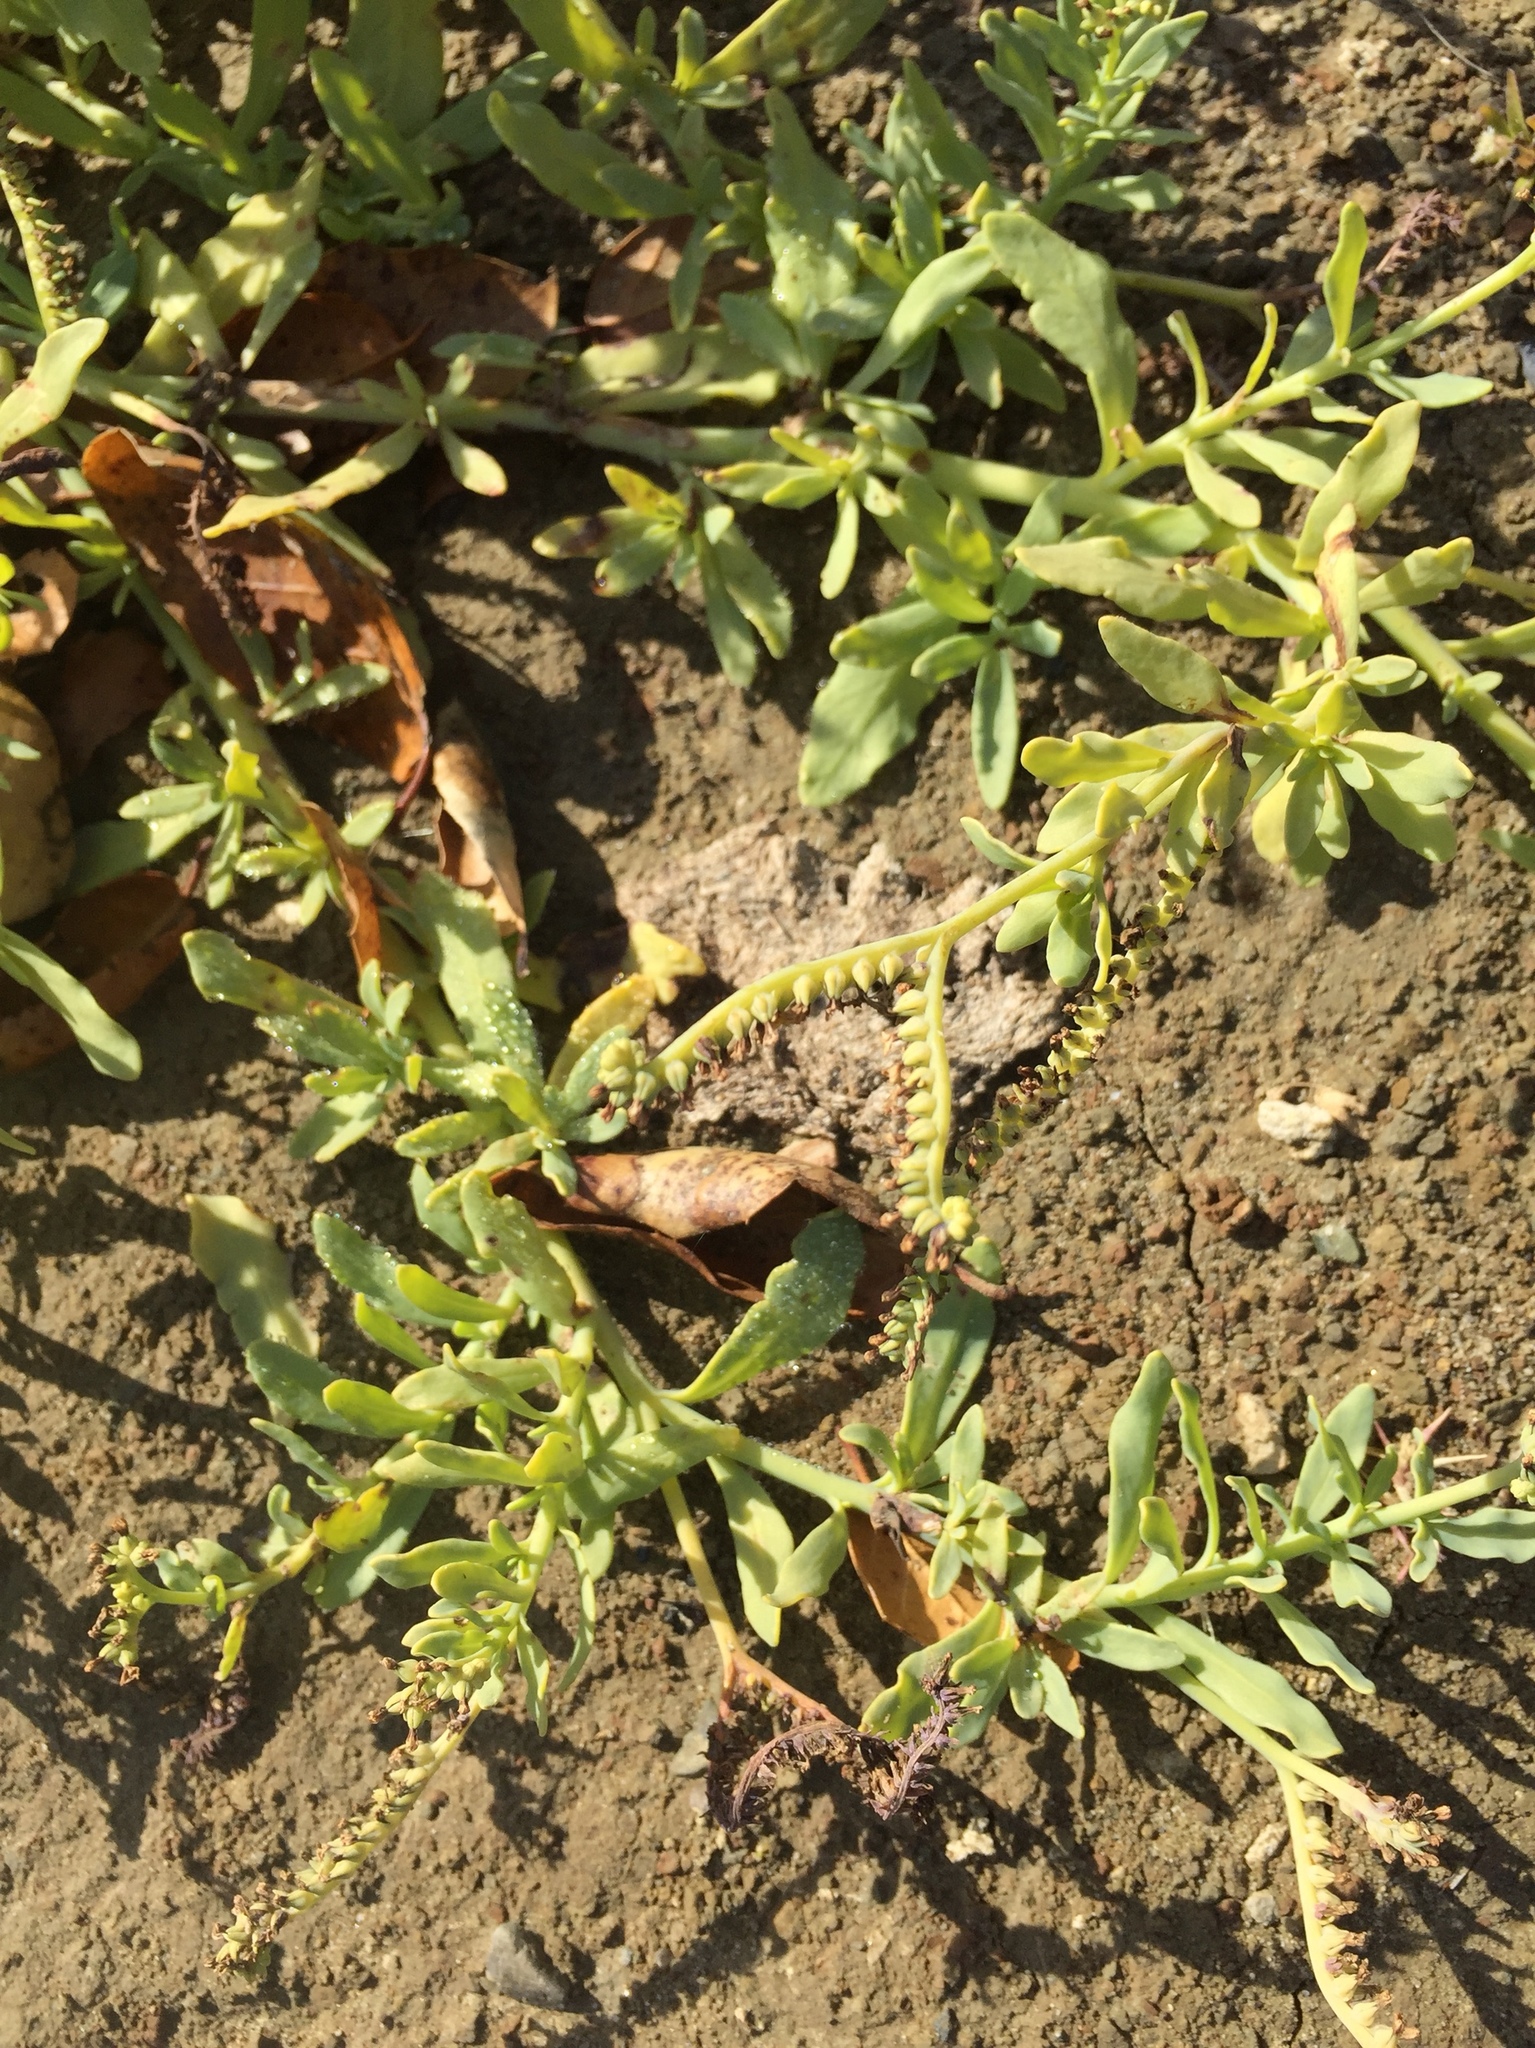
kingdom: Plantae
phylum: Tracheophyta
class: Magnoliopsida
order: Boraginales
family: Heliotropiaceae
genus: Heliotropium
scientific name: Heliotropium curassavicum
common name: Seaside heliotrope
